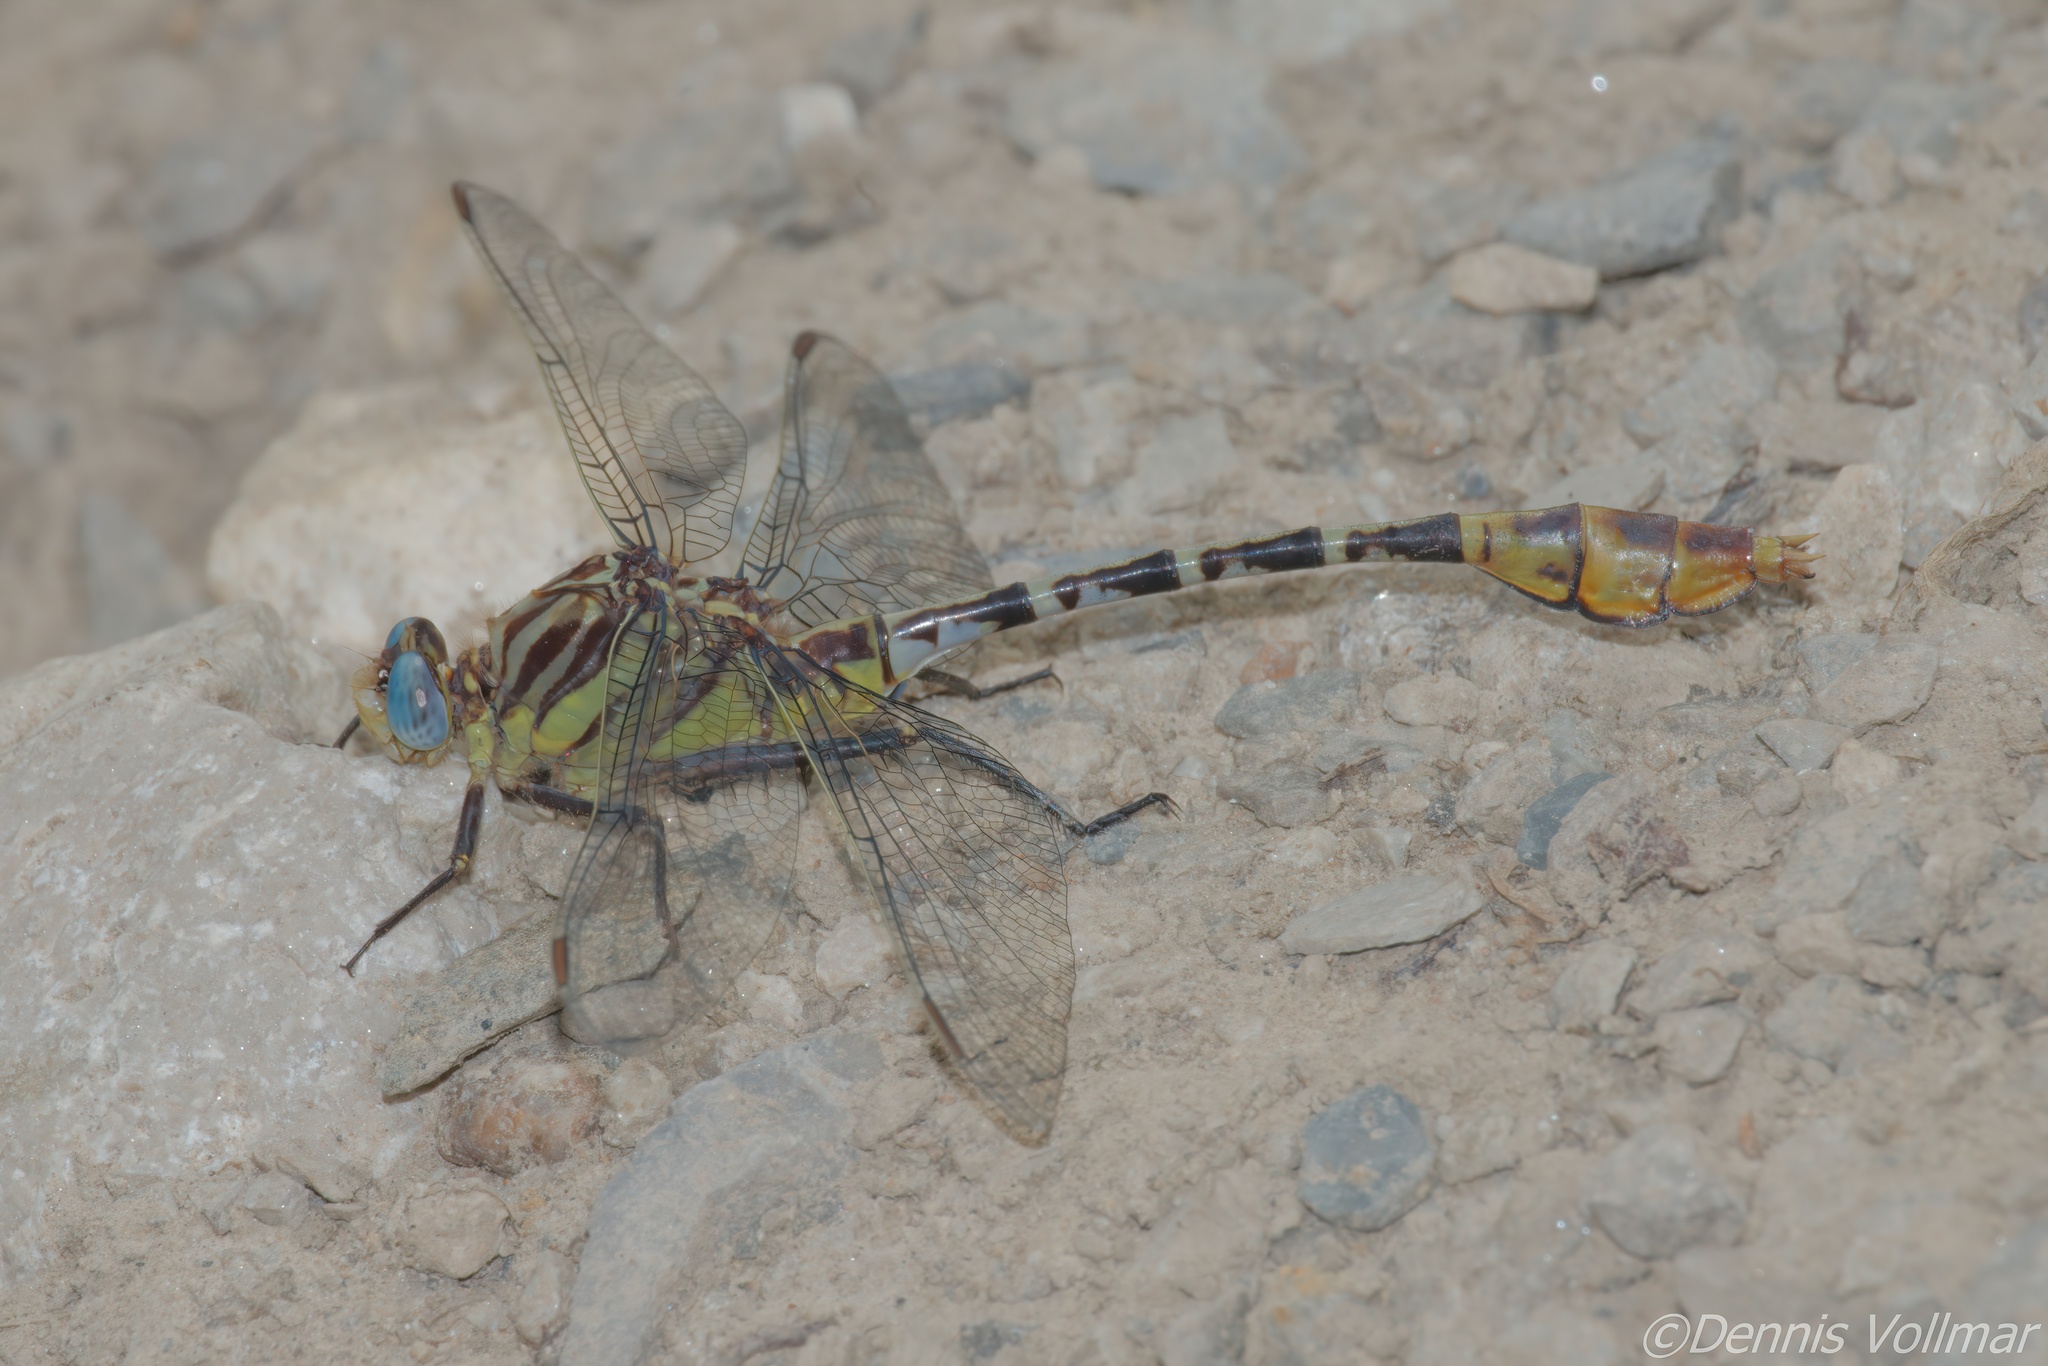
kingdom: Animalia
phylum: Arthropoda
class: Insecta
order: Odonata
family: Gomphidae
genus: Dromogomphus
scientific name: Dromogomphus spoliatus
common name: Flag-tailed spinyleg
